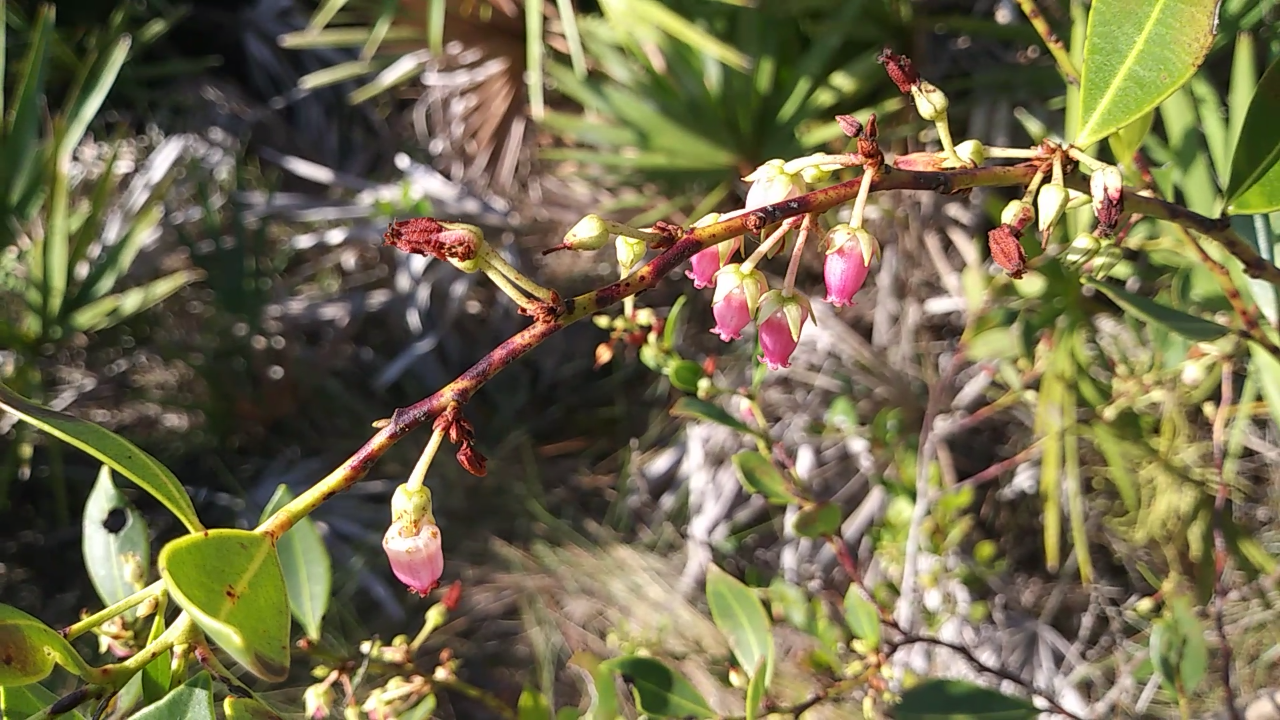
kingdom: Plantae
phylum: Tracheophyta
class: Magnoliopsida
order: Ericales
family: Ericaceae
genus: Lyonia
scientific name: Lyonia lucida
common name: Fetterbush
